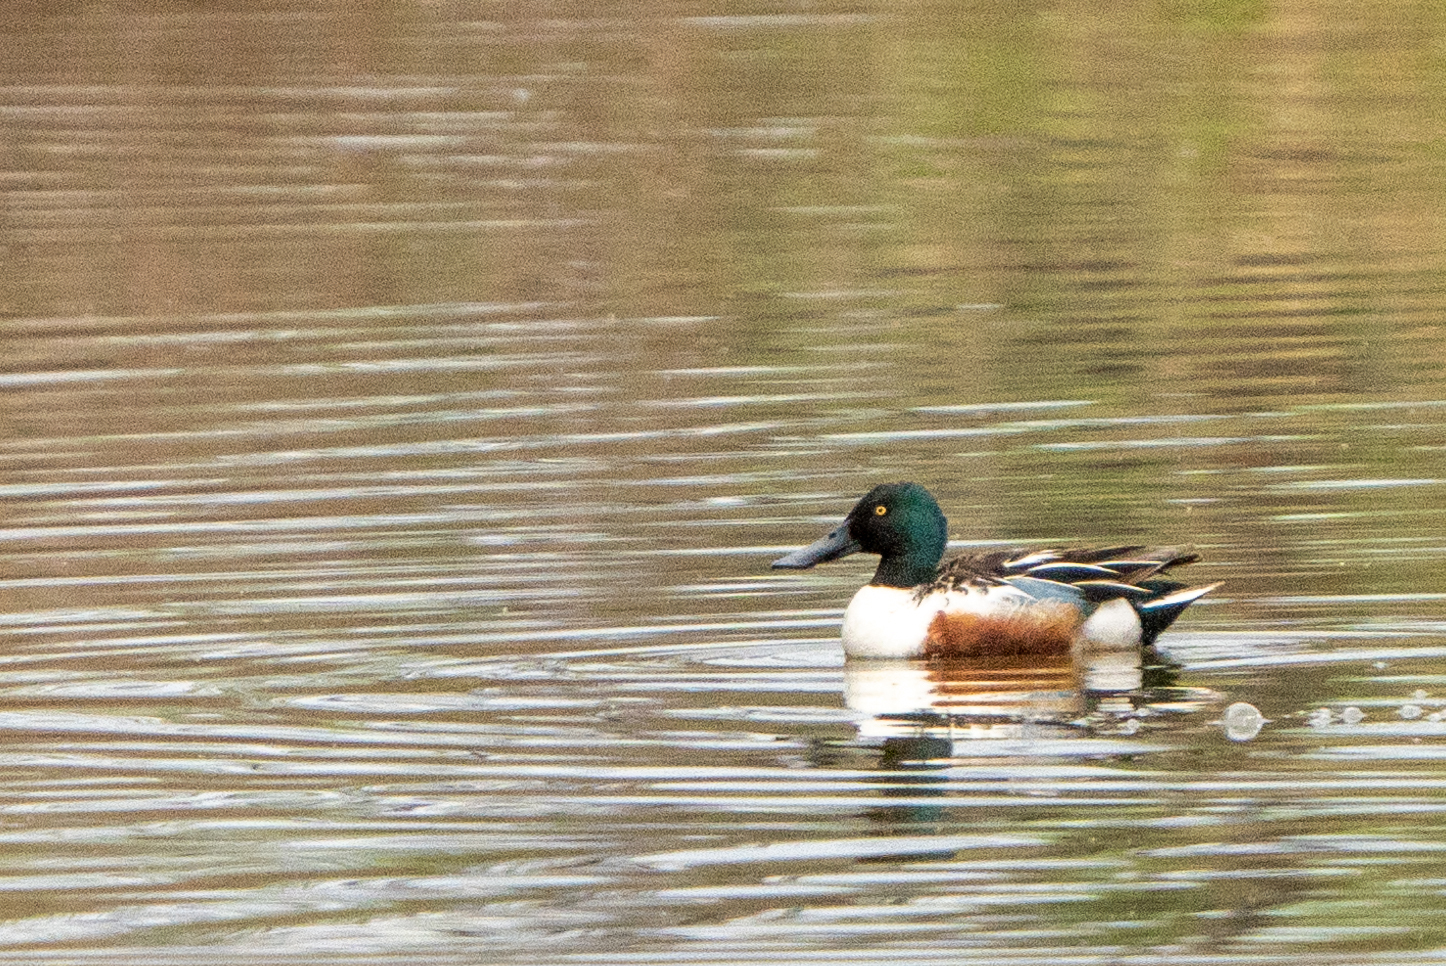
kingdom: Animalia
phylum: Chordata
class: Aves
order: Anseriformes
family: Anatidae
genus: Spatula
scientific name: Spatula clypeata
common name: Northern shoveler
